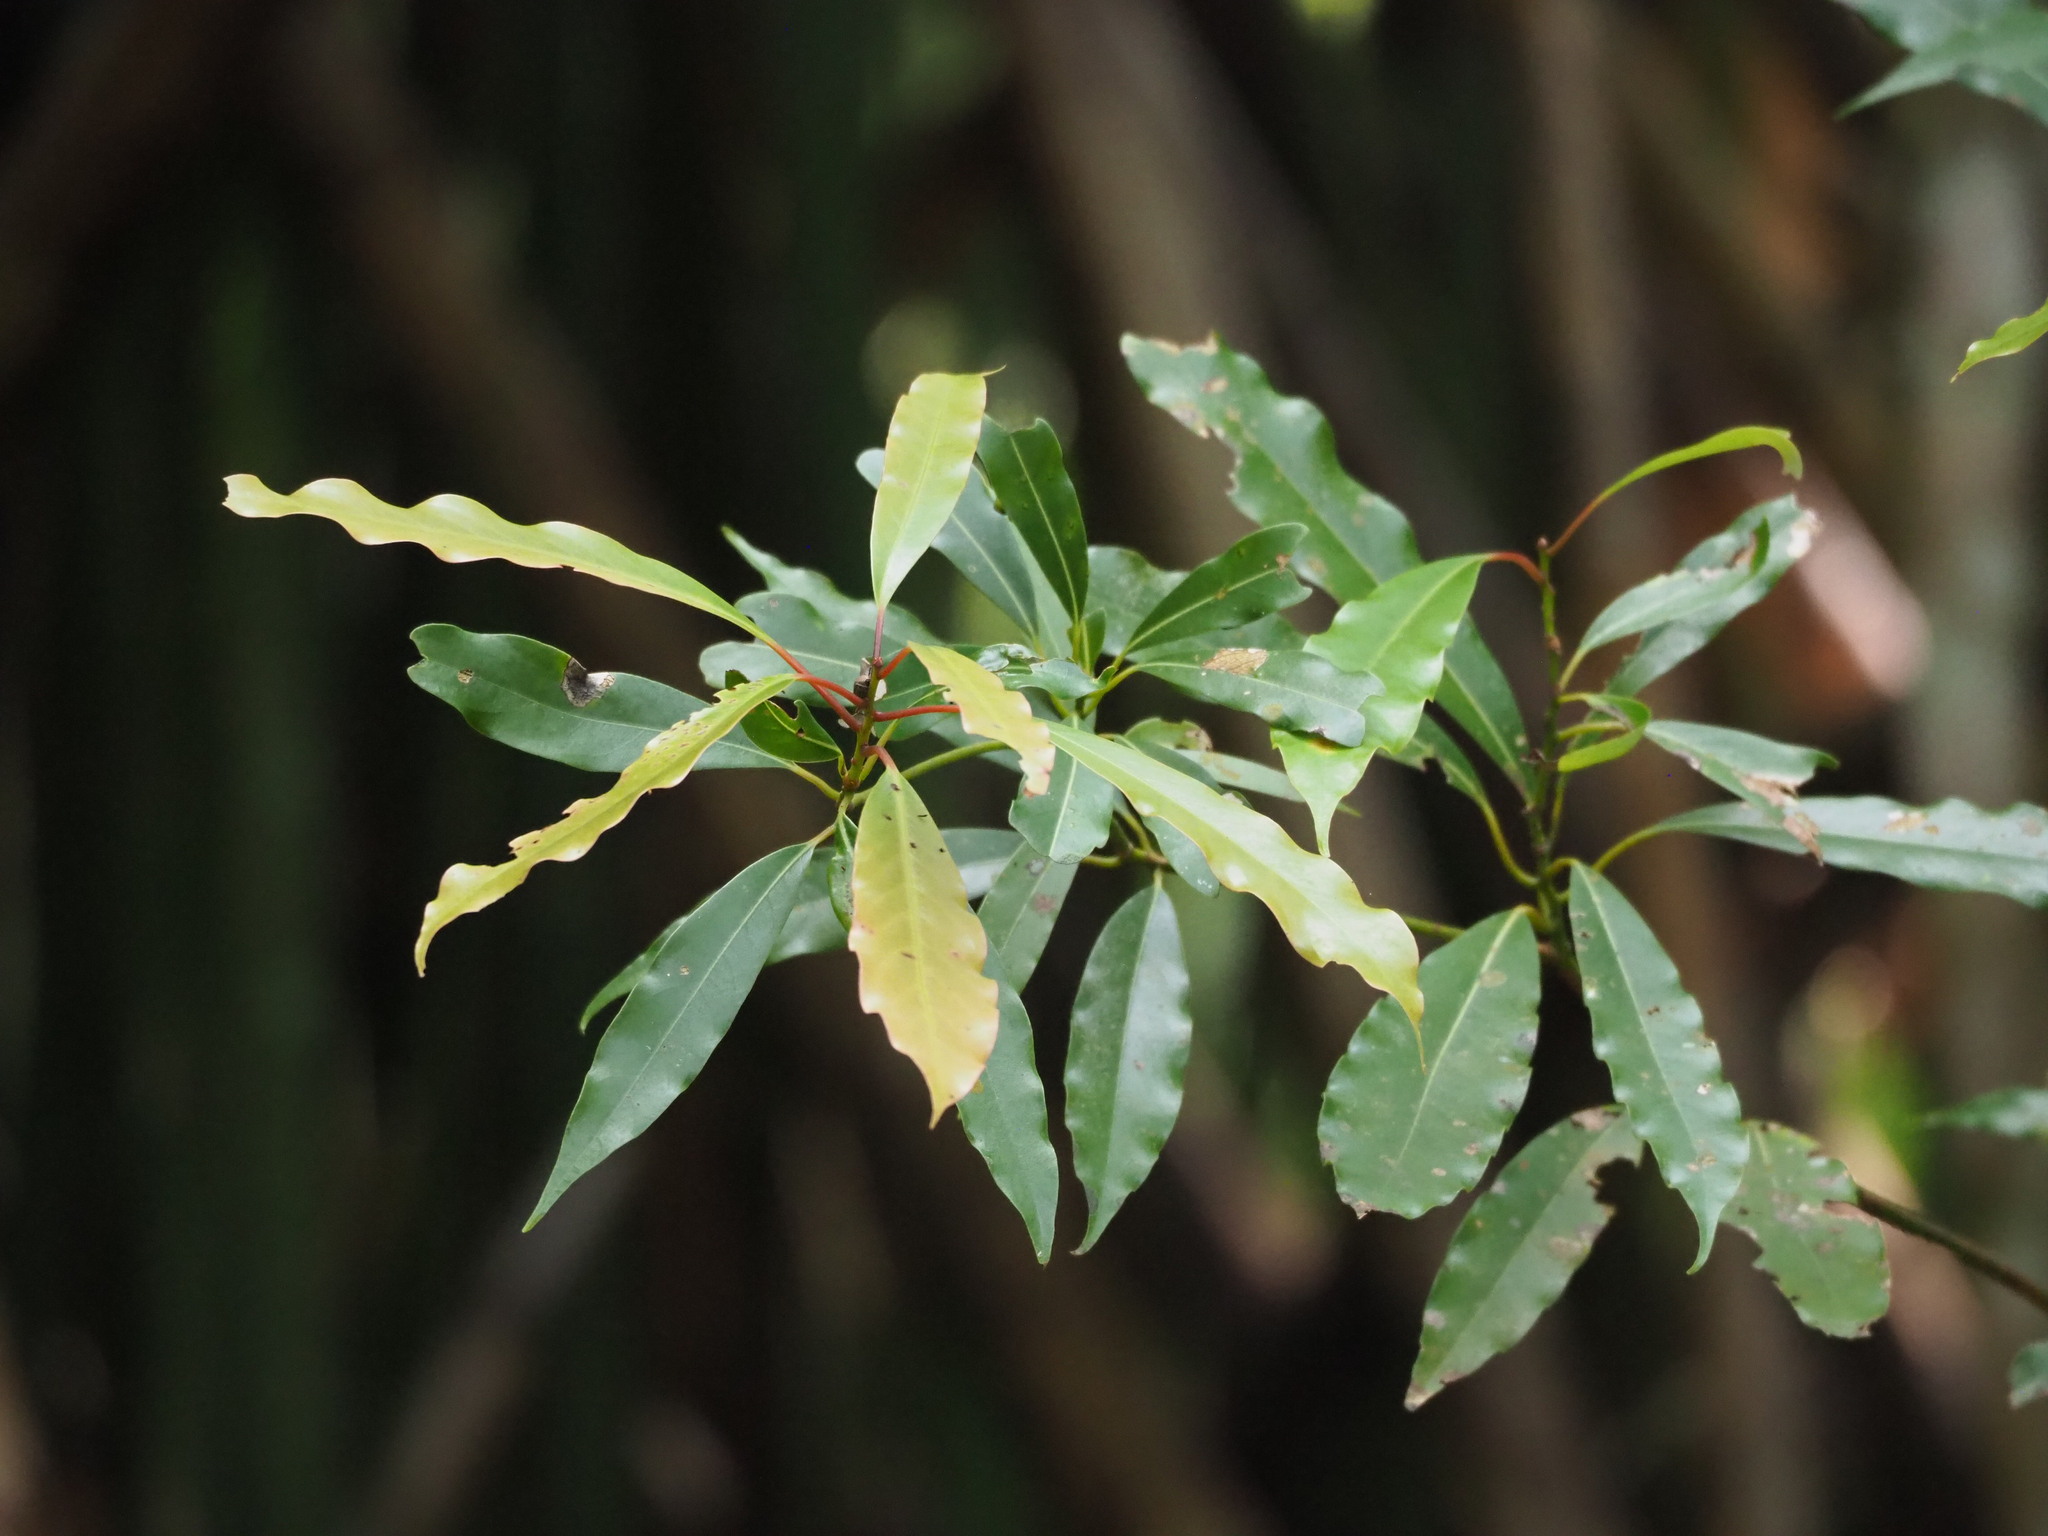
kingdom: Plantae
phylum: Tracheophyta
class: Magnoliopsida
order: Laurales
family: Lauraceae
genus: Machilus
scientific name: Machilus thunbergii
